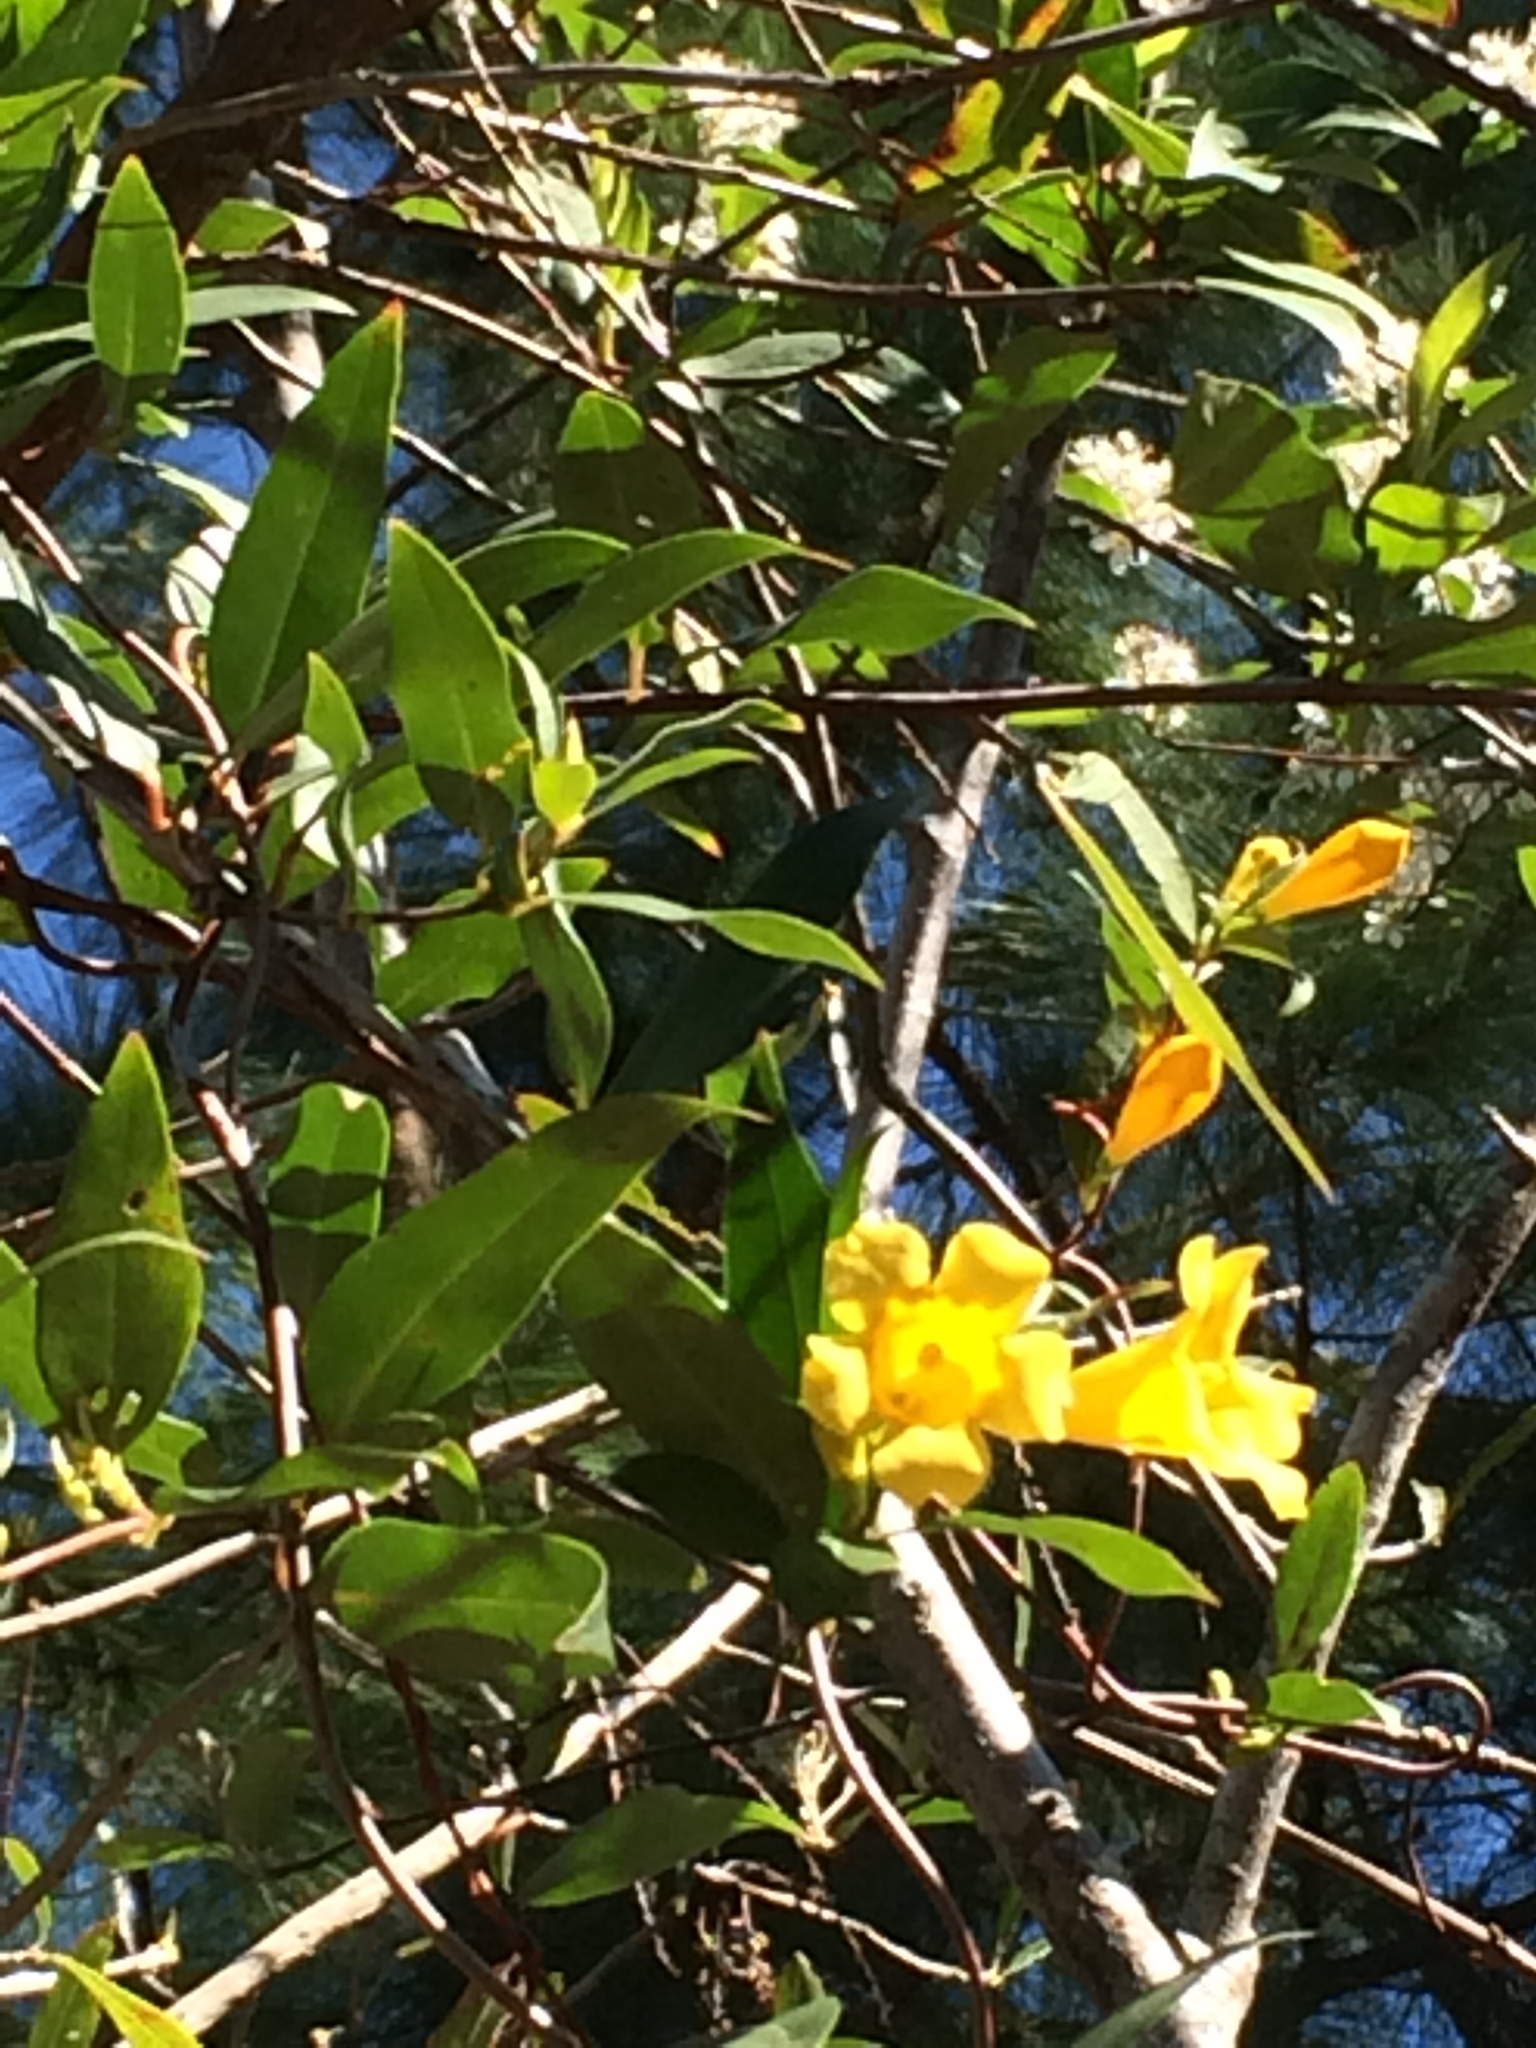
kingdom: Plantae
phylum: Tracheophyta
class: Magnoliopsida
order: Gentianales
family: Gelsemiaceae
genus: Gelsemium
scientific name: Gelsemium sempervirens
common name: Carolina-jasmine
